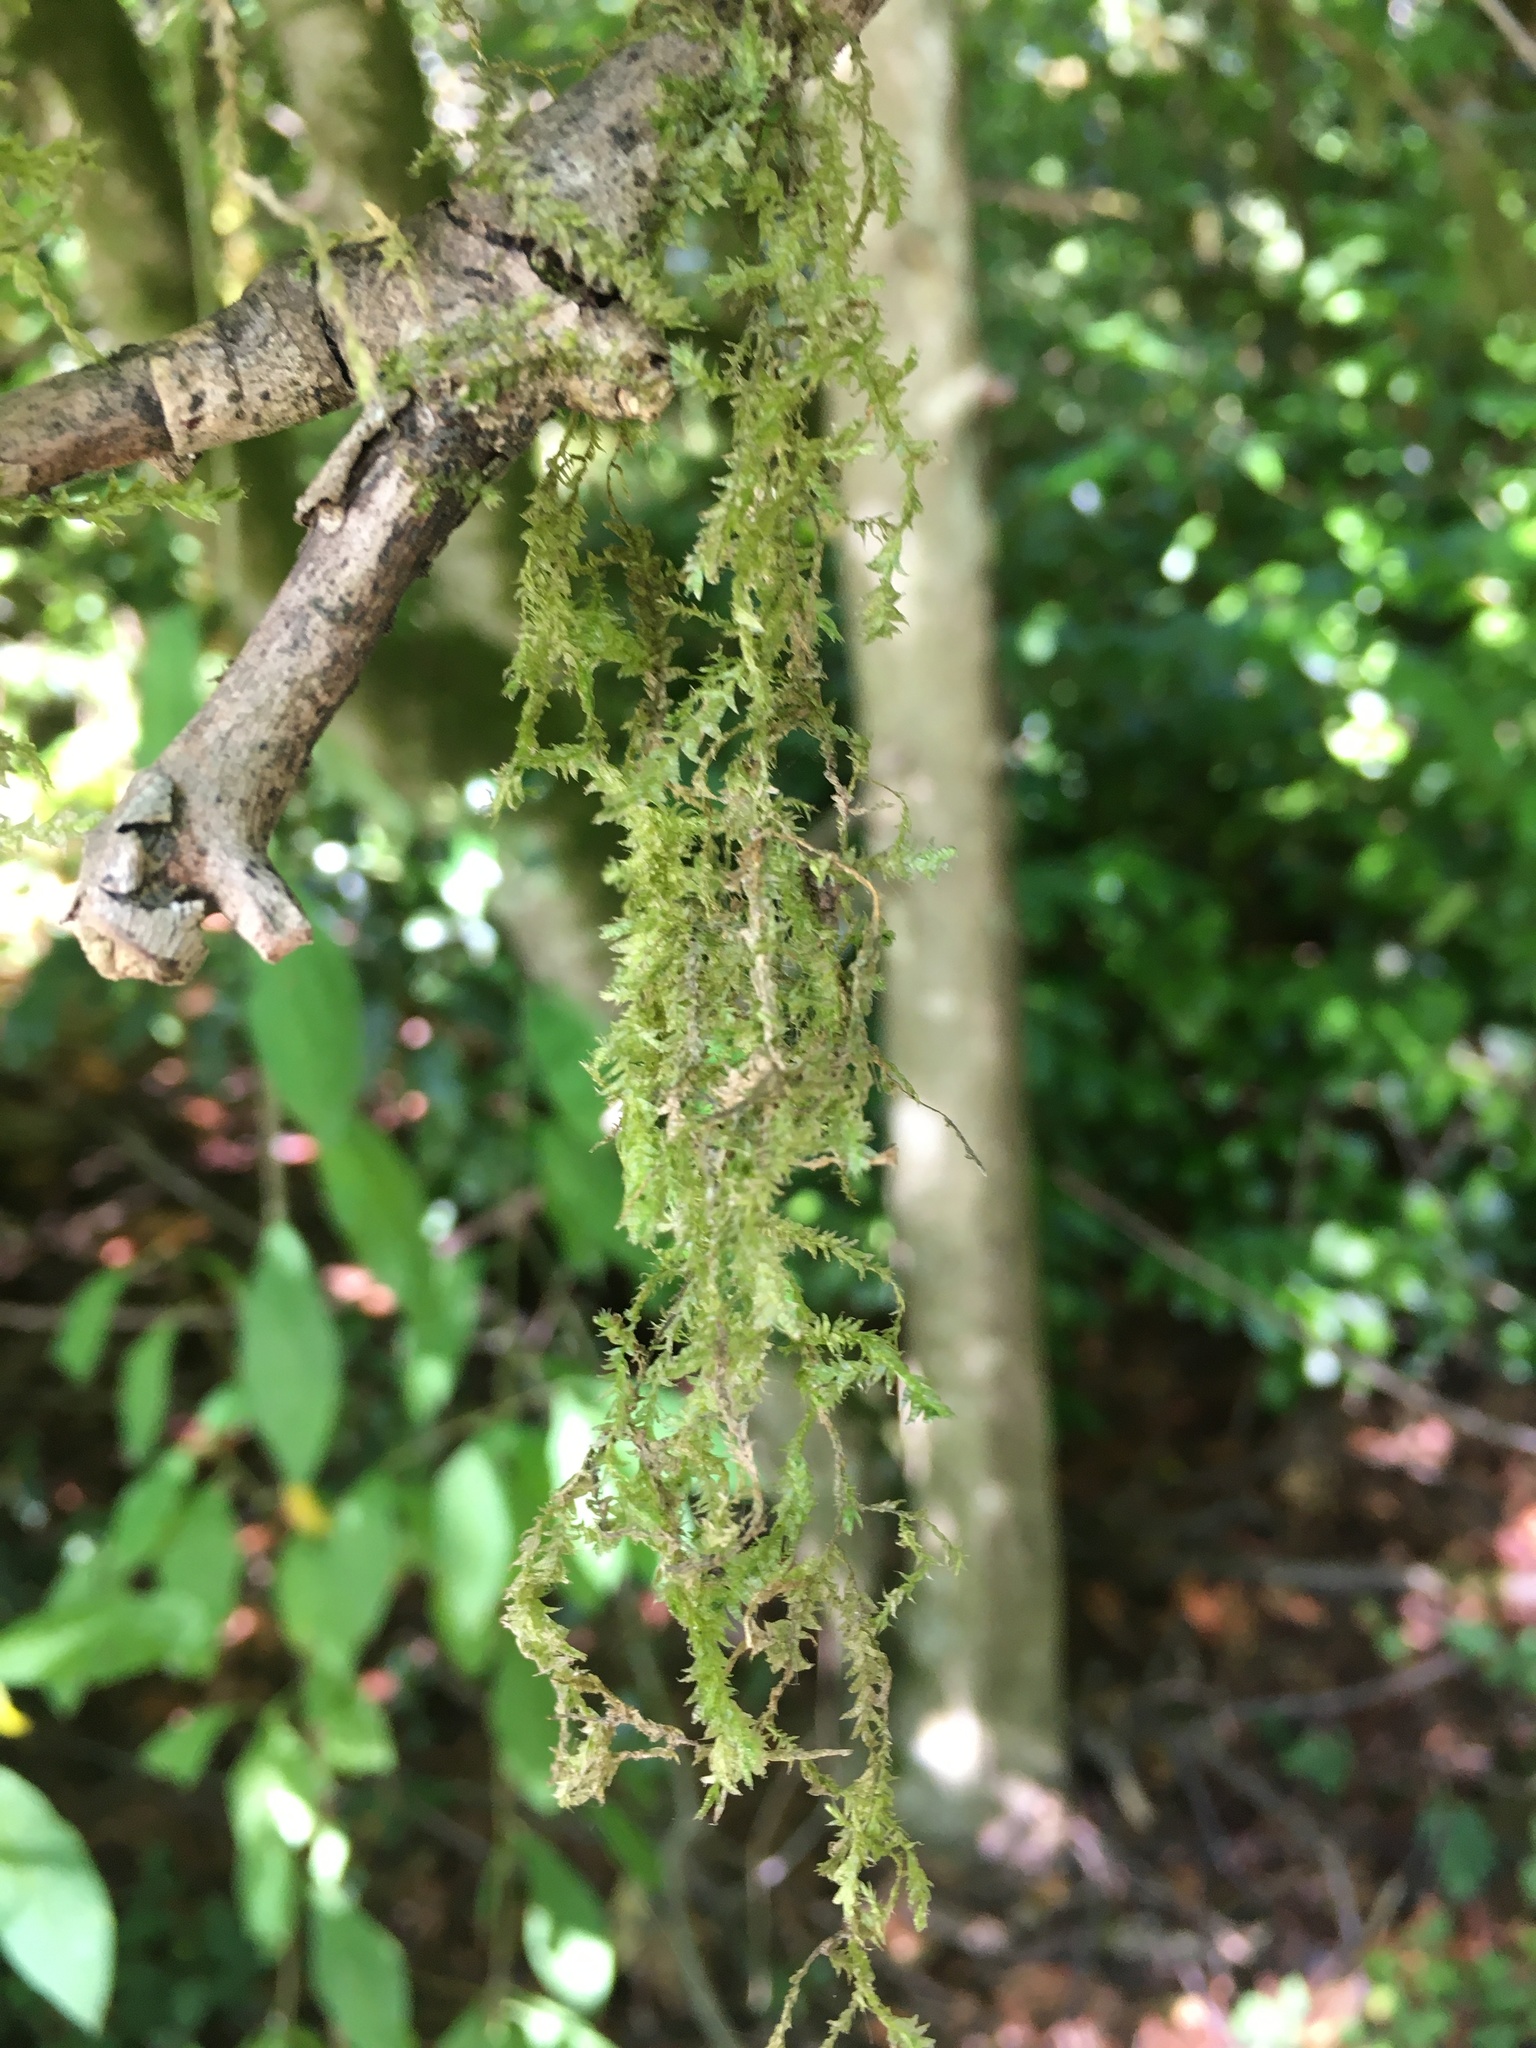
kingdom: Plantae
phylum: Bryophyta
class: Bryopsida
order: Hypnales
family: Neckeraceae
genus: Neckera
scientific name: Neckera douglasii
